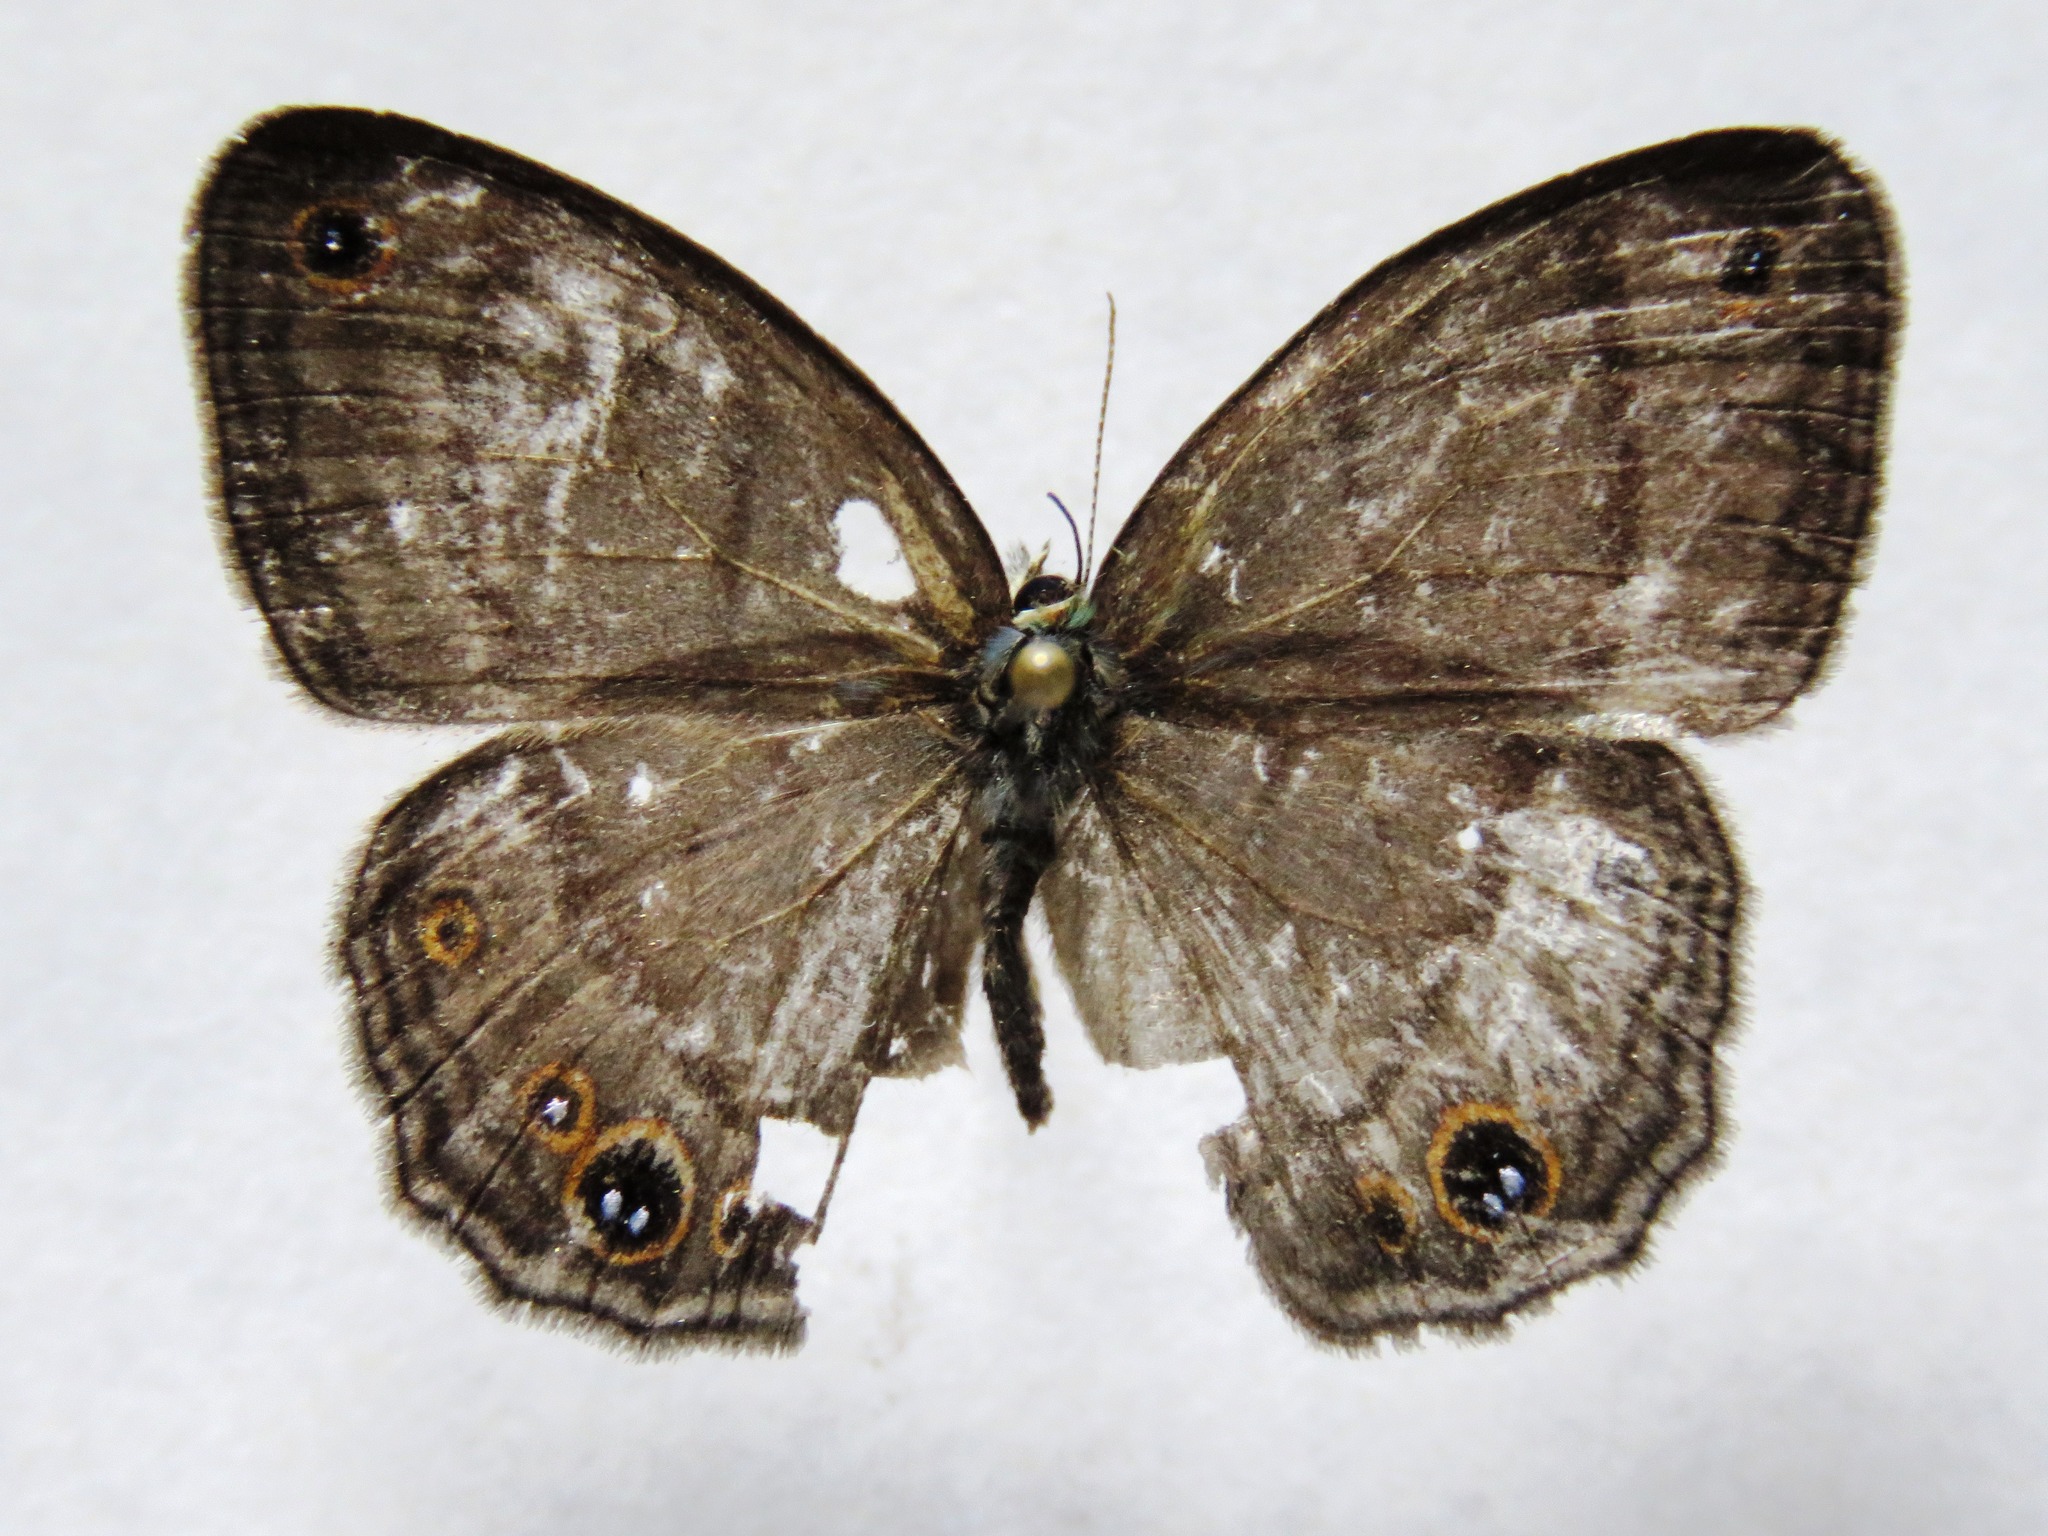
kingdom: Animalia
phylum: Arthropoda
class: Insecta
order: Lepidoptera
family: Nymphalidae
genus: Euptychia
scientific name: Euptychia Cissia pompilia
